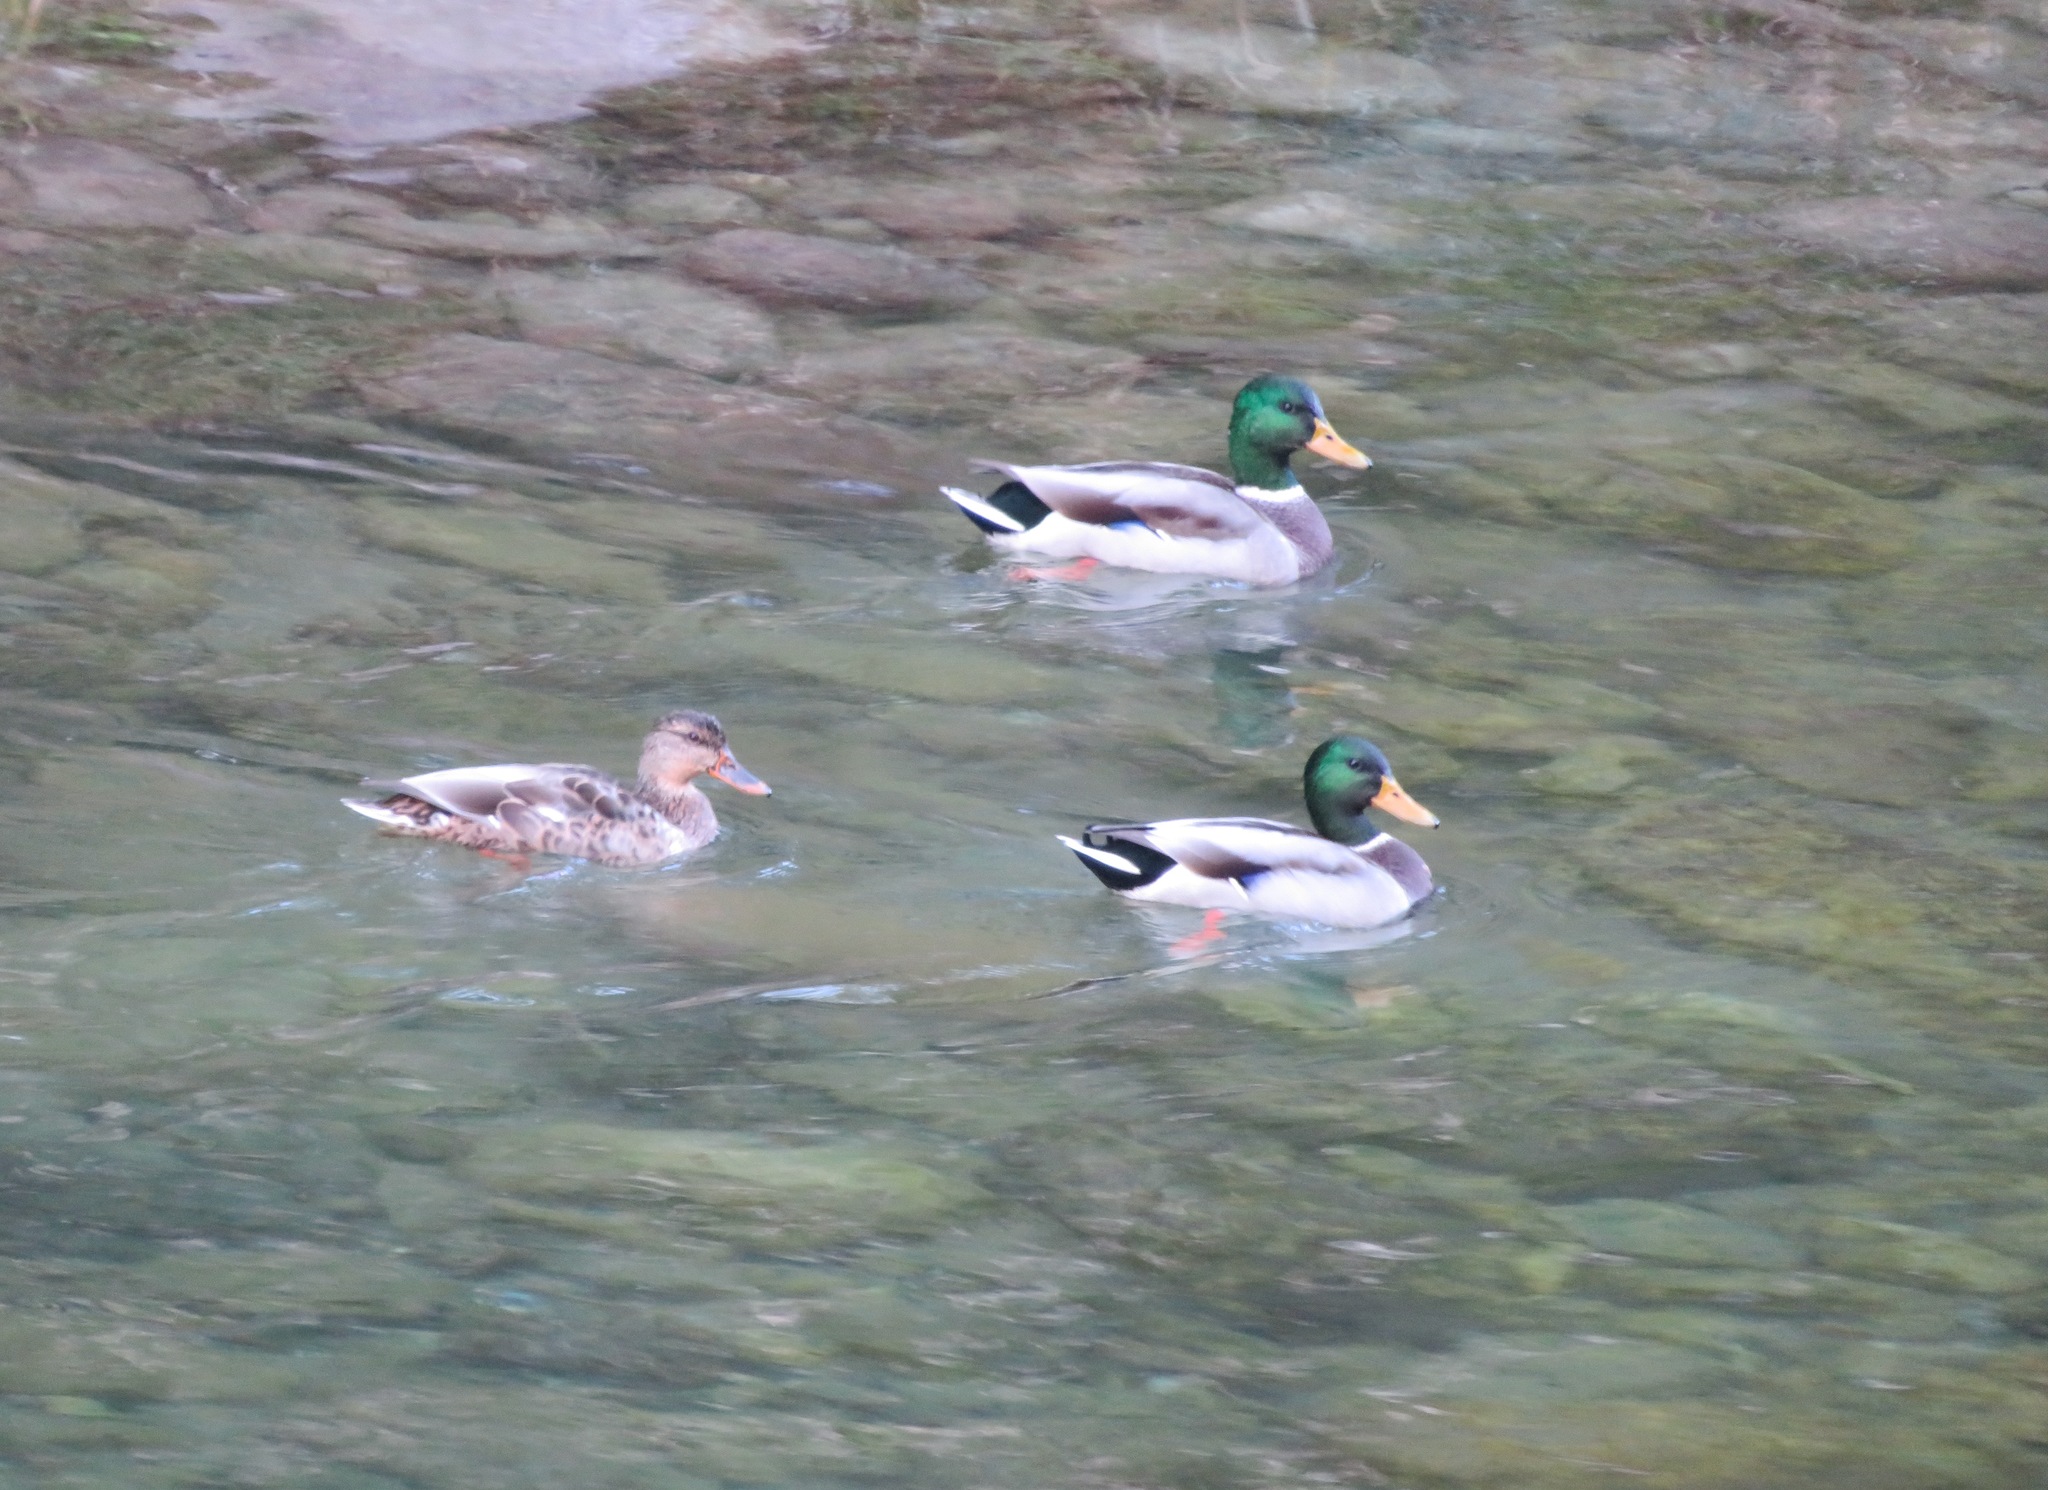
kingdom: Animalia
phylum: Chordata
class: Aves
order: Anseriformes
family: Anatidae
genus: Anas
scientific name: Anas platyrhynchos
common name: Mallard
